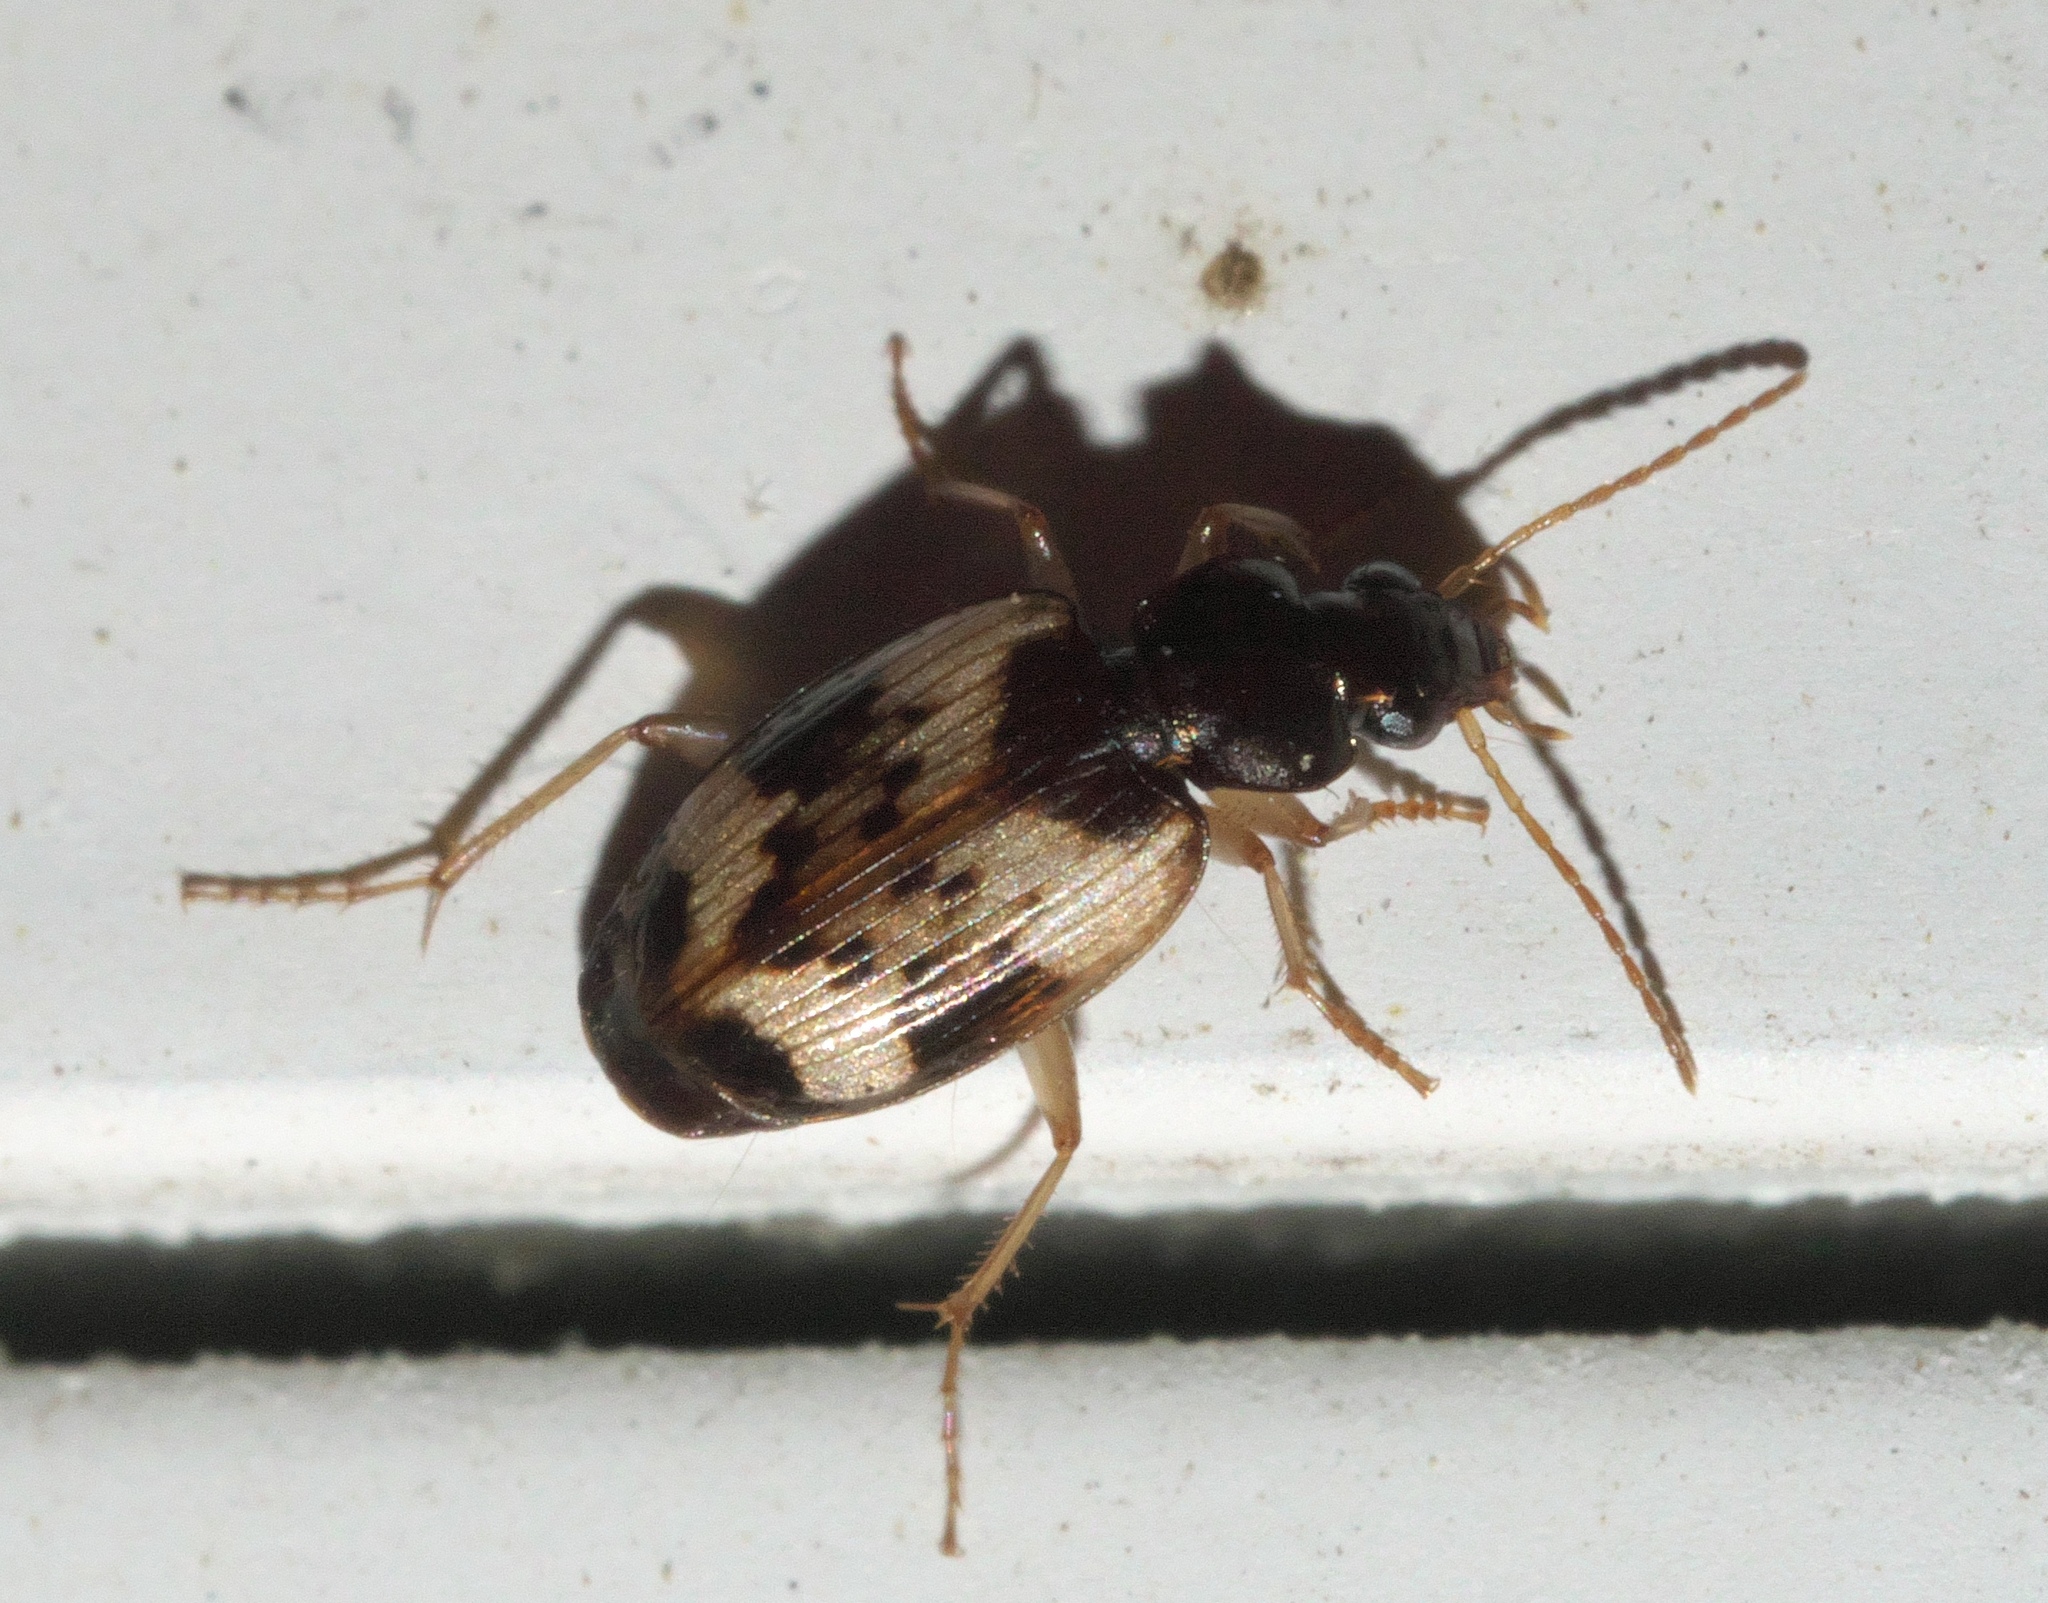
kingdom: Animalia
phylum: Arthropoda
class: Insecta
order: Coleoptera
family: Carabidae
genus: Tetragonoderus
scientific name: Tetragonoderus fasciatus
